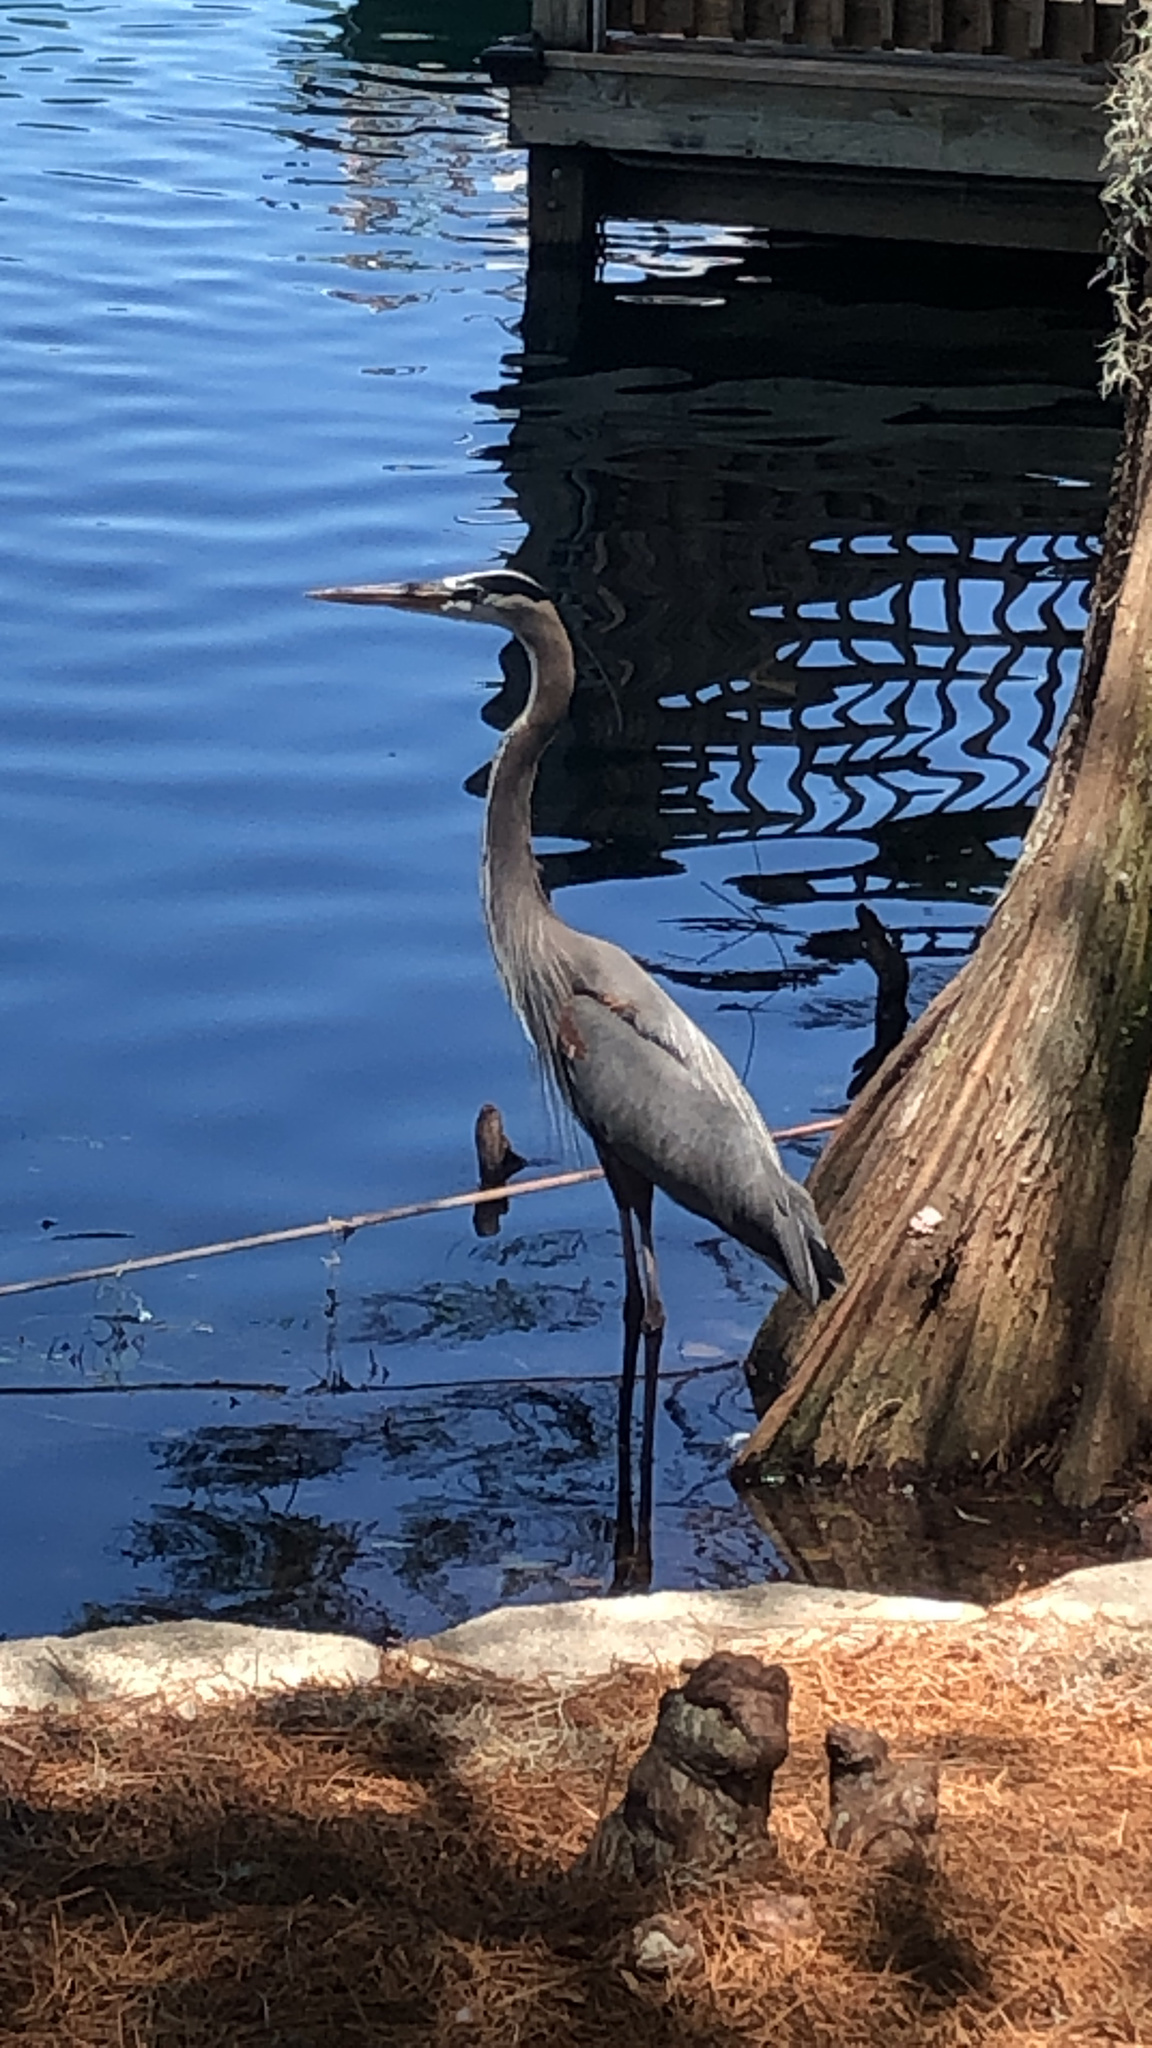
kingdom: Animalia
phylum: Chordata
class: Aves
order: Pelecaniformes
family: Ardeidae
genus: Ardea
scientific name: Ardea herodias
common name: Great blue heron
